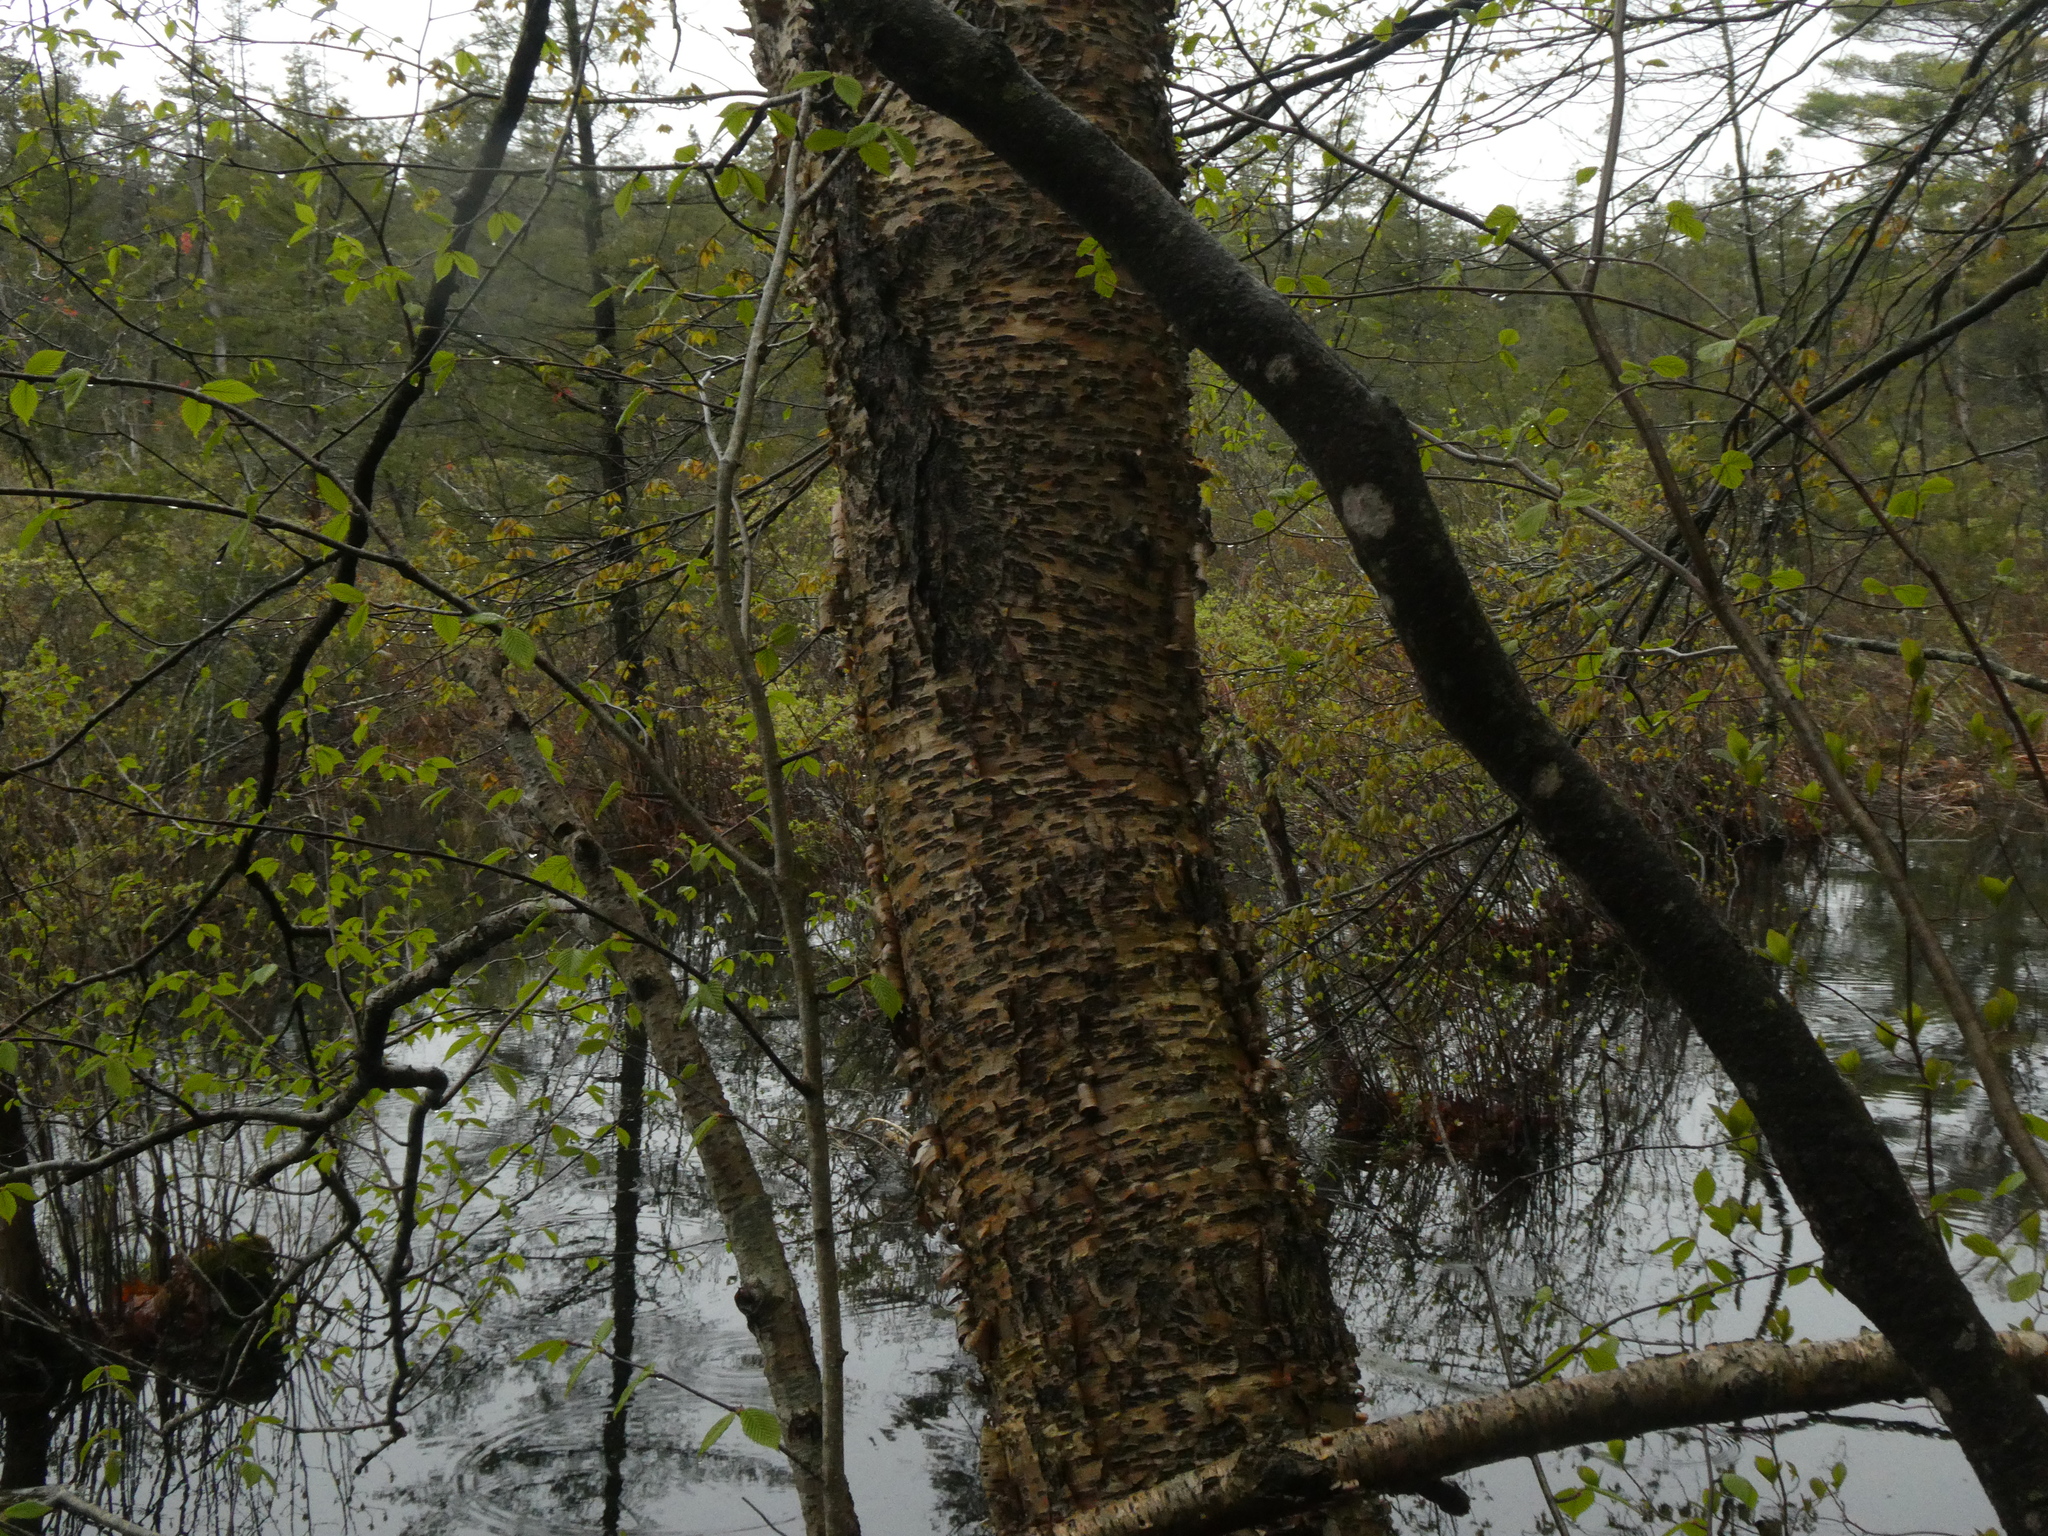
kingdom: Plantae
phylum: Tracheophyta
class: Magnoliopsida
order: Fagales
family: Betulaceae
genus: Betula
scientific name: Betula alleghaniensis
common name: Yellow birch
